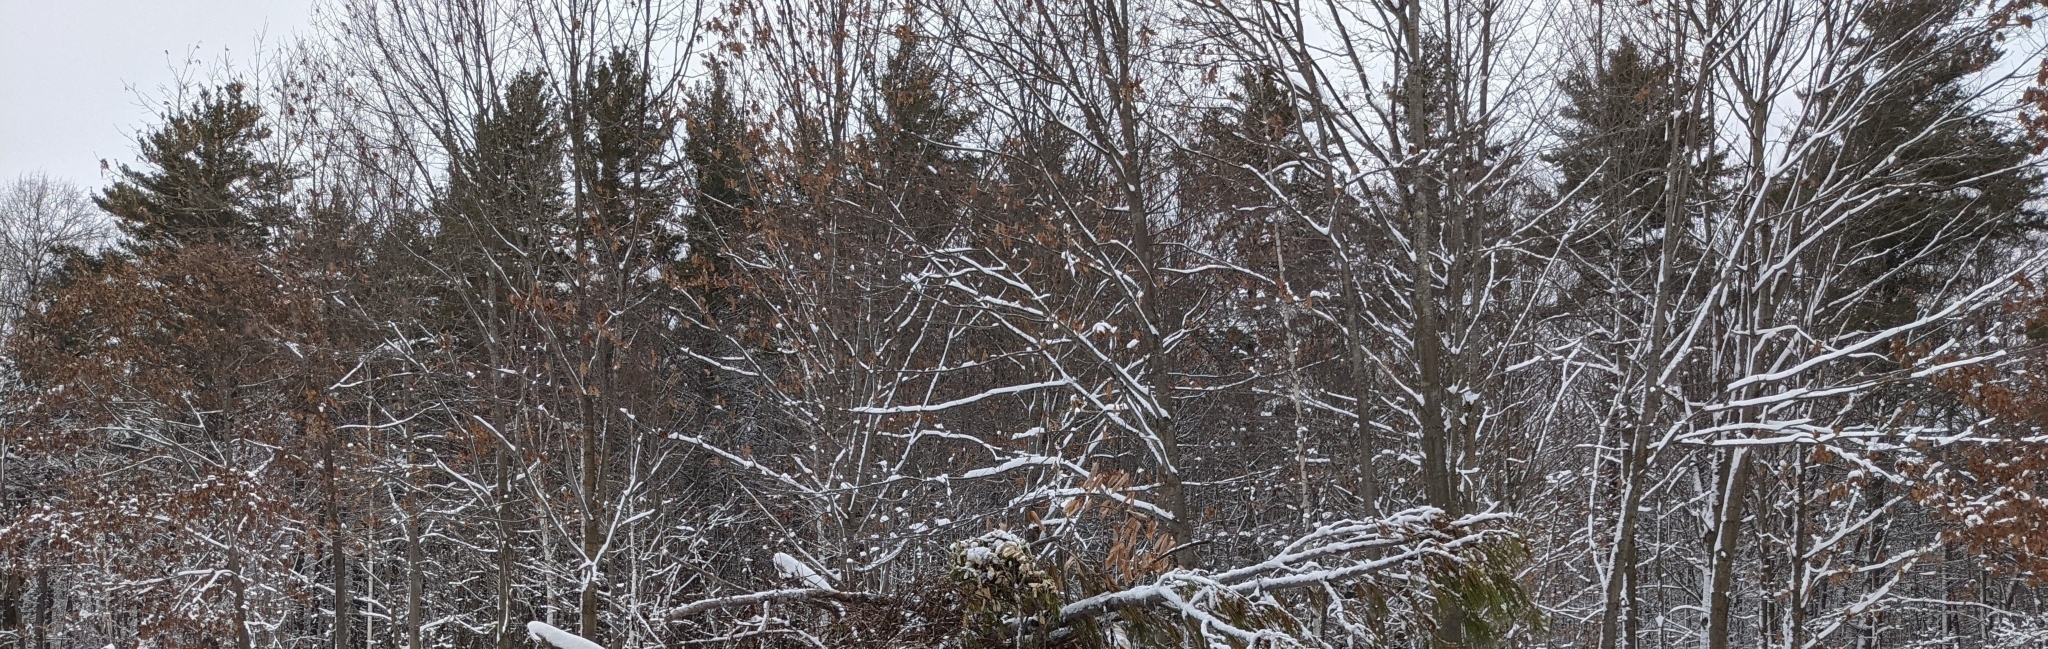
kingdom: Plantae
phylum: Tracheophyta
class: Pinopsida
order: Pinales
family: Pinaceae
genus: Pinus
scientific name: Pinus strobus
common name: Weymouth pine
